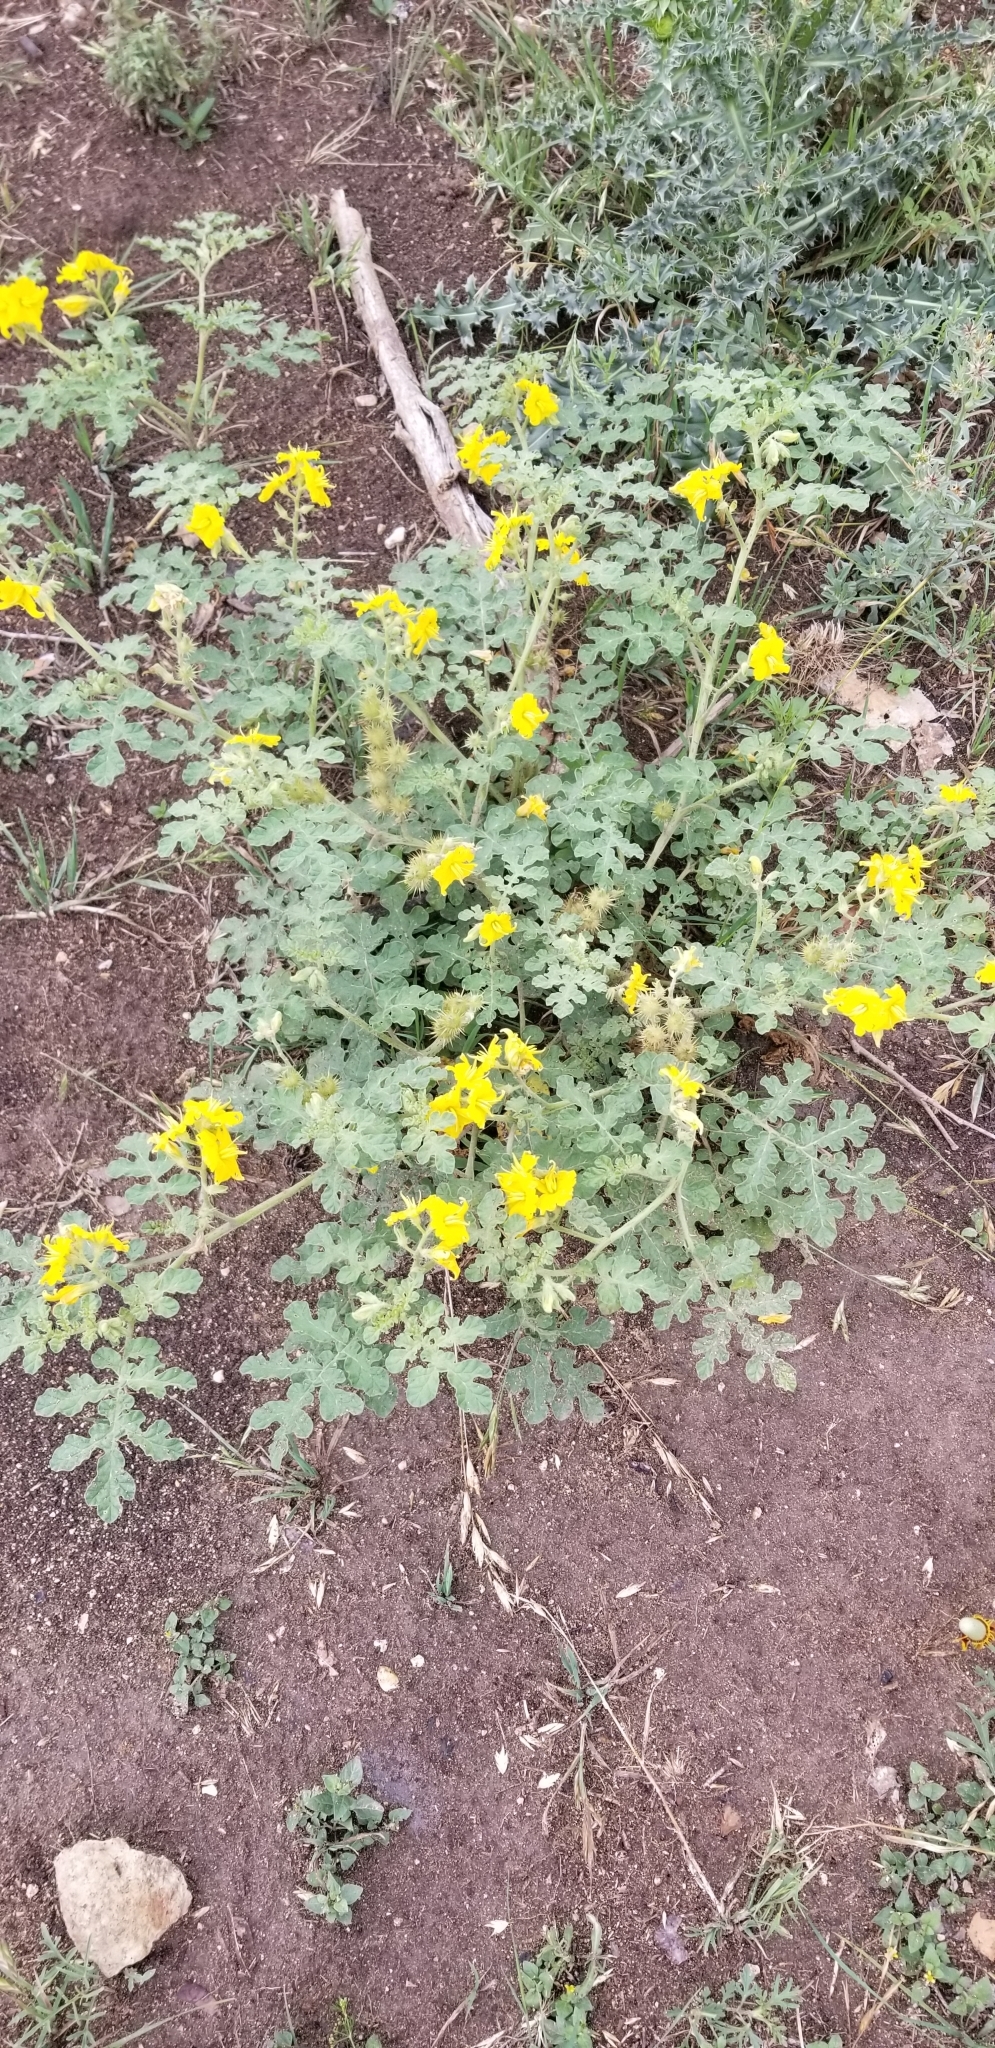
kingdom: Plantae
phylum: Tracheophyta
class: Magnoliopsida
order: Solanales
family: Solanaceae
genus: Solanum
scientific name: Solanum angustifolium
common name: Buffalobur nightshade
